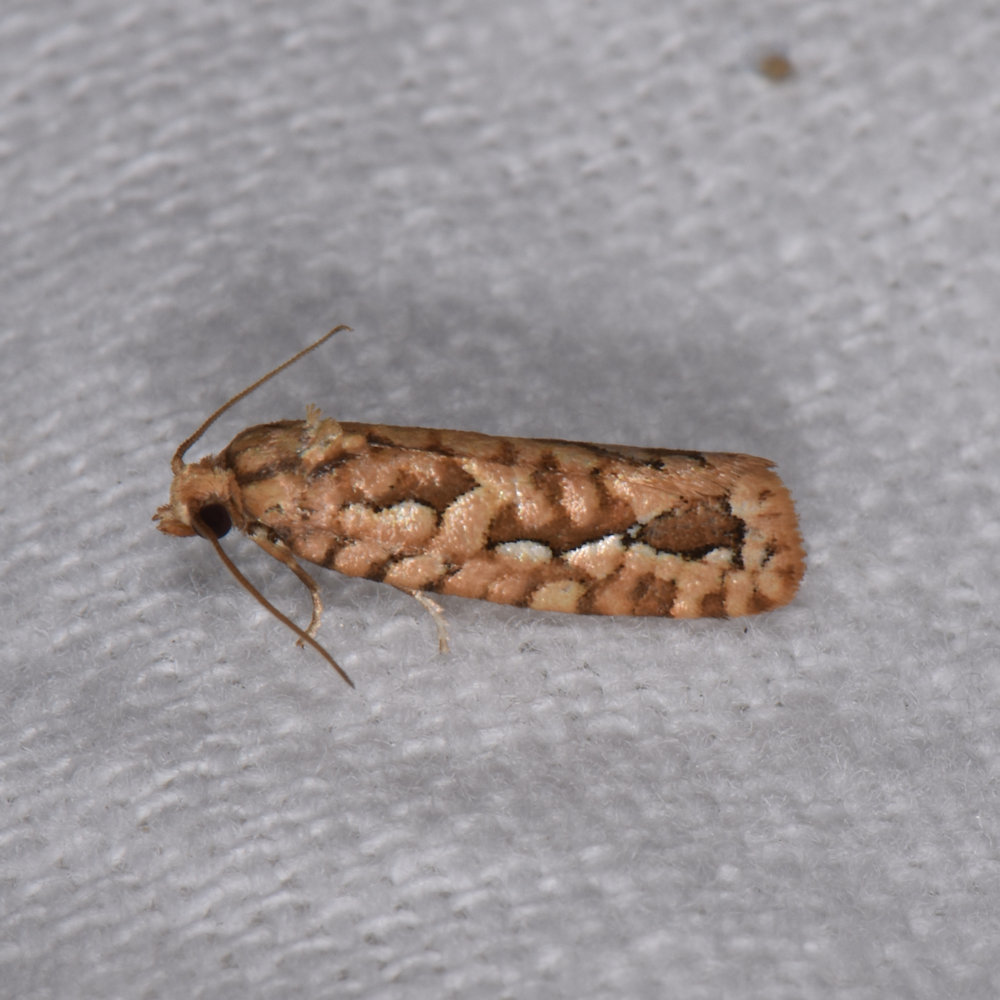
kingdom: Animalia
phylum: Arthropoda
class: Insecta
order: Lepidoptera
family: Tortricidae
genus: Diedra
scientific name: Diedra cockerellana
